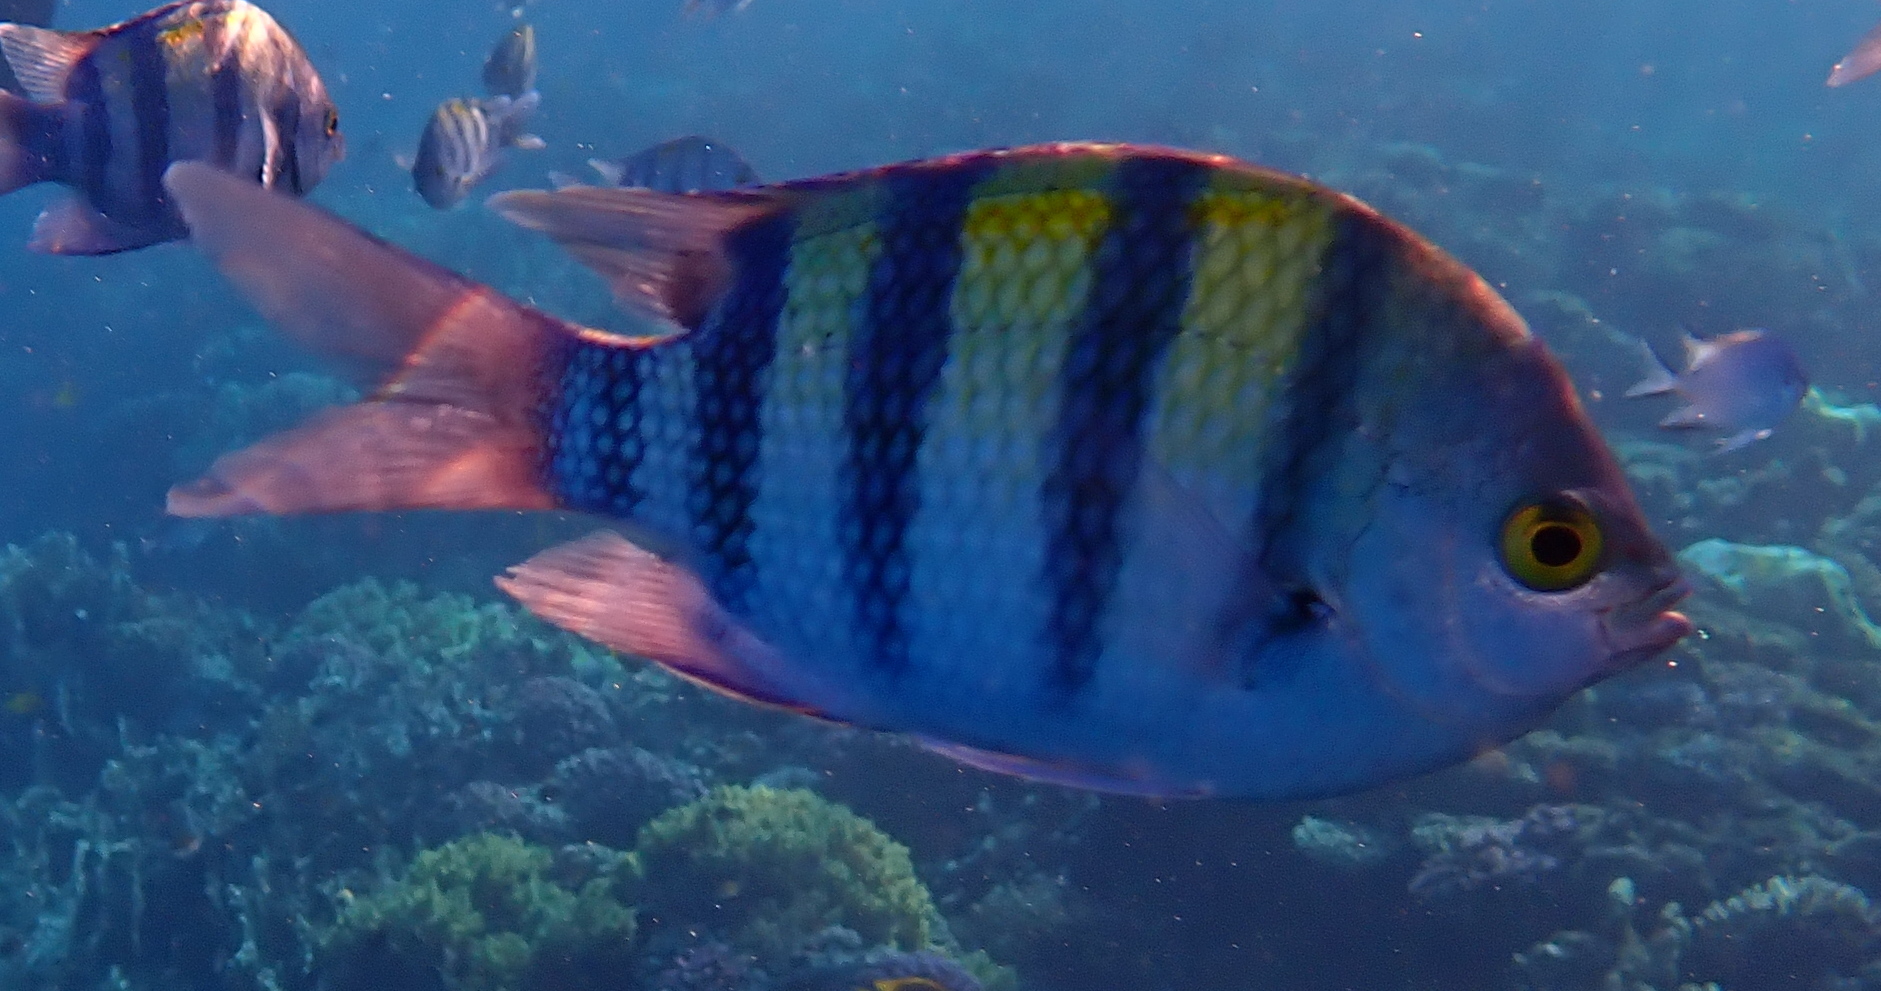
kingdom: Animalia
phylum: Chordata
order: Perciformes
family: Pomacentridae
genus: Abudefduf
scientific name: Abudefduf vaigiensis
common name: Indo-pacific sergeant
